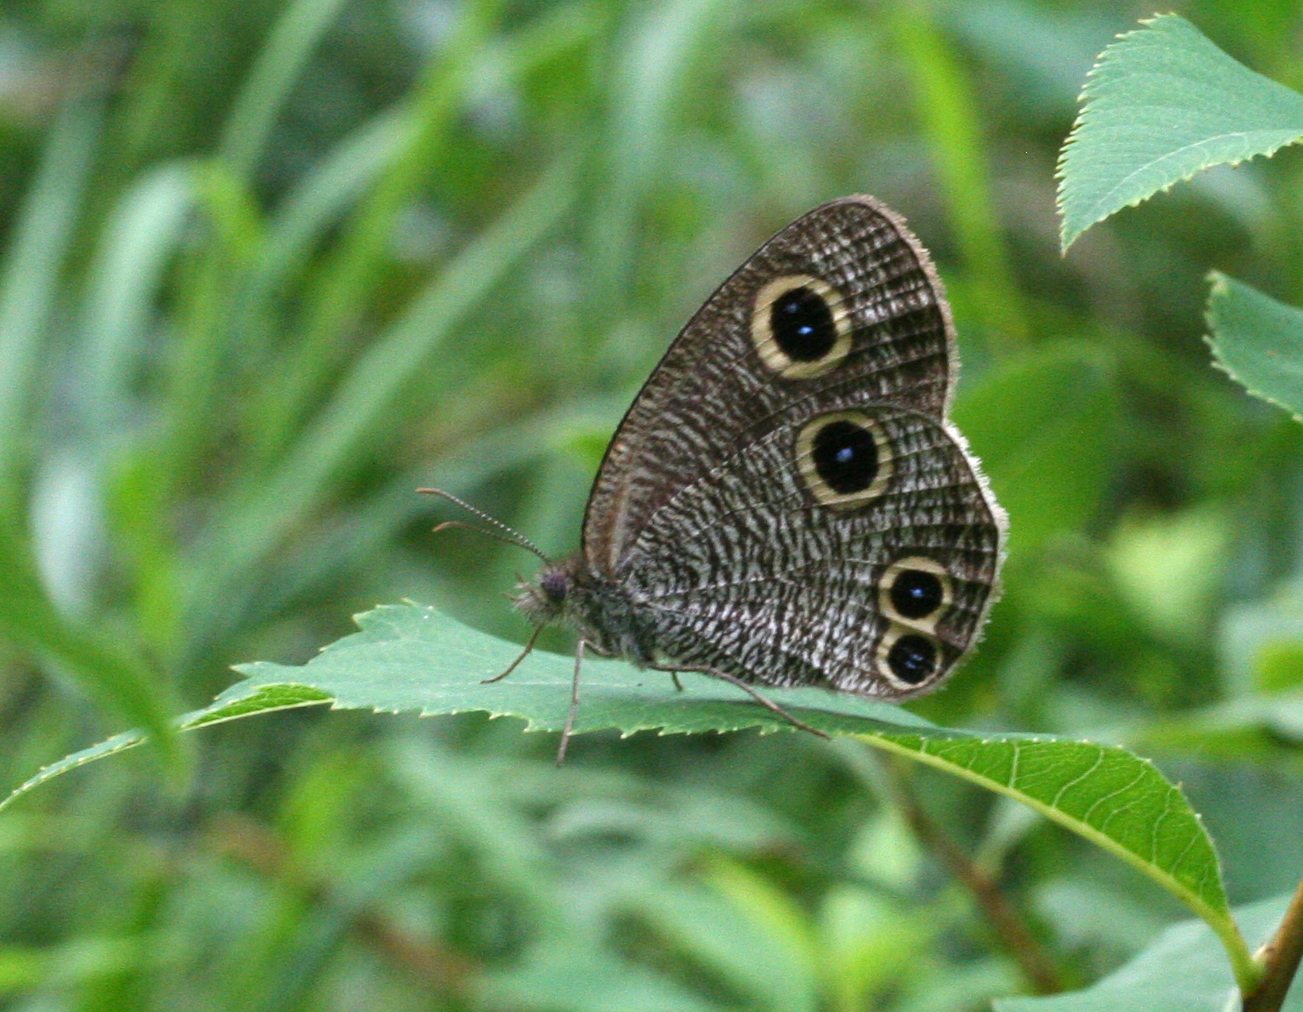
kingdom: Animalia
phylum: Arthropoda
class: Insecta
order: Lepidoptera
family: Nymphalidae
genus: Ypthima
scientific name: Ypthima multistriata
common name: Striated ringlet
